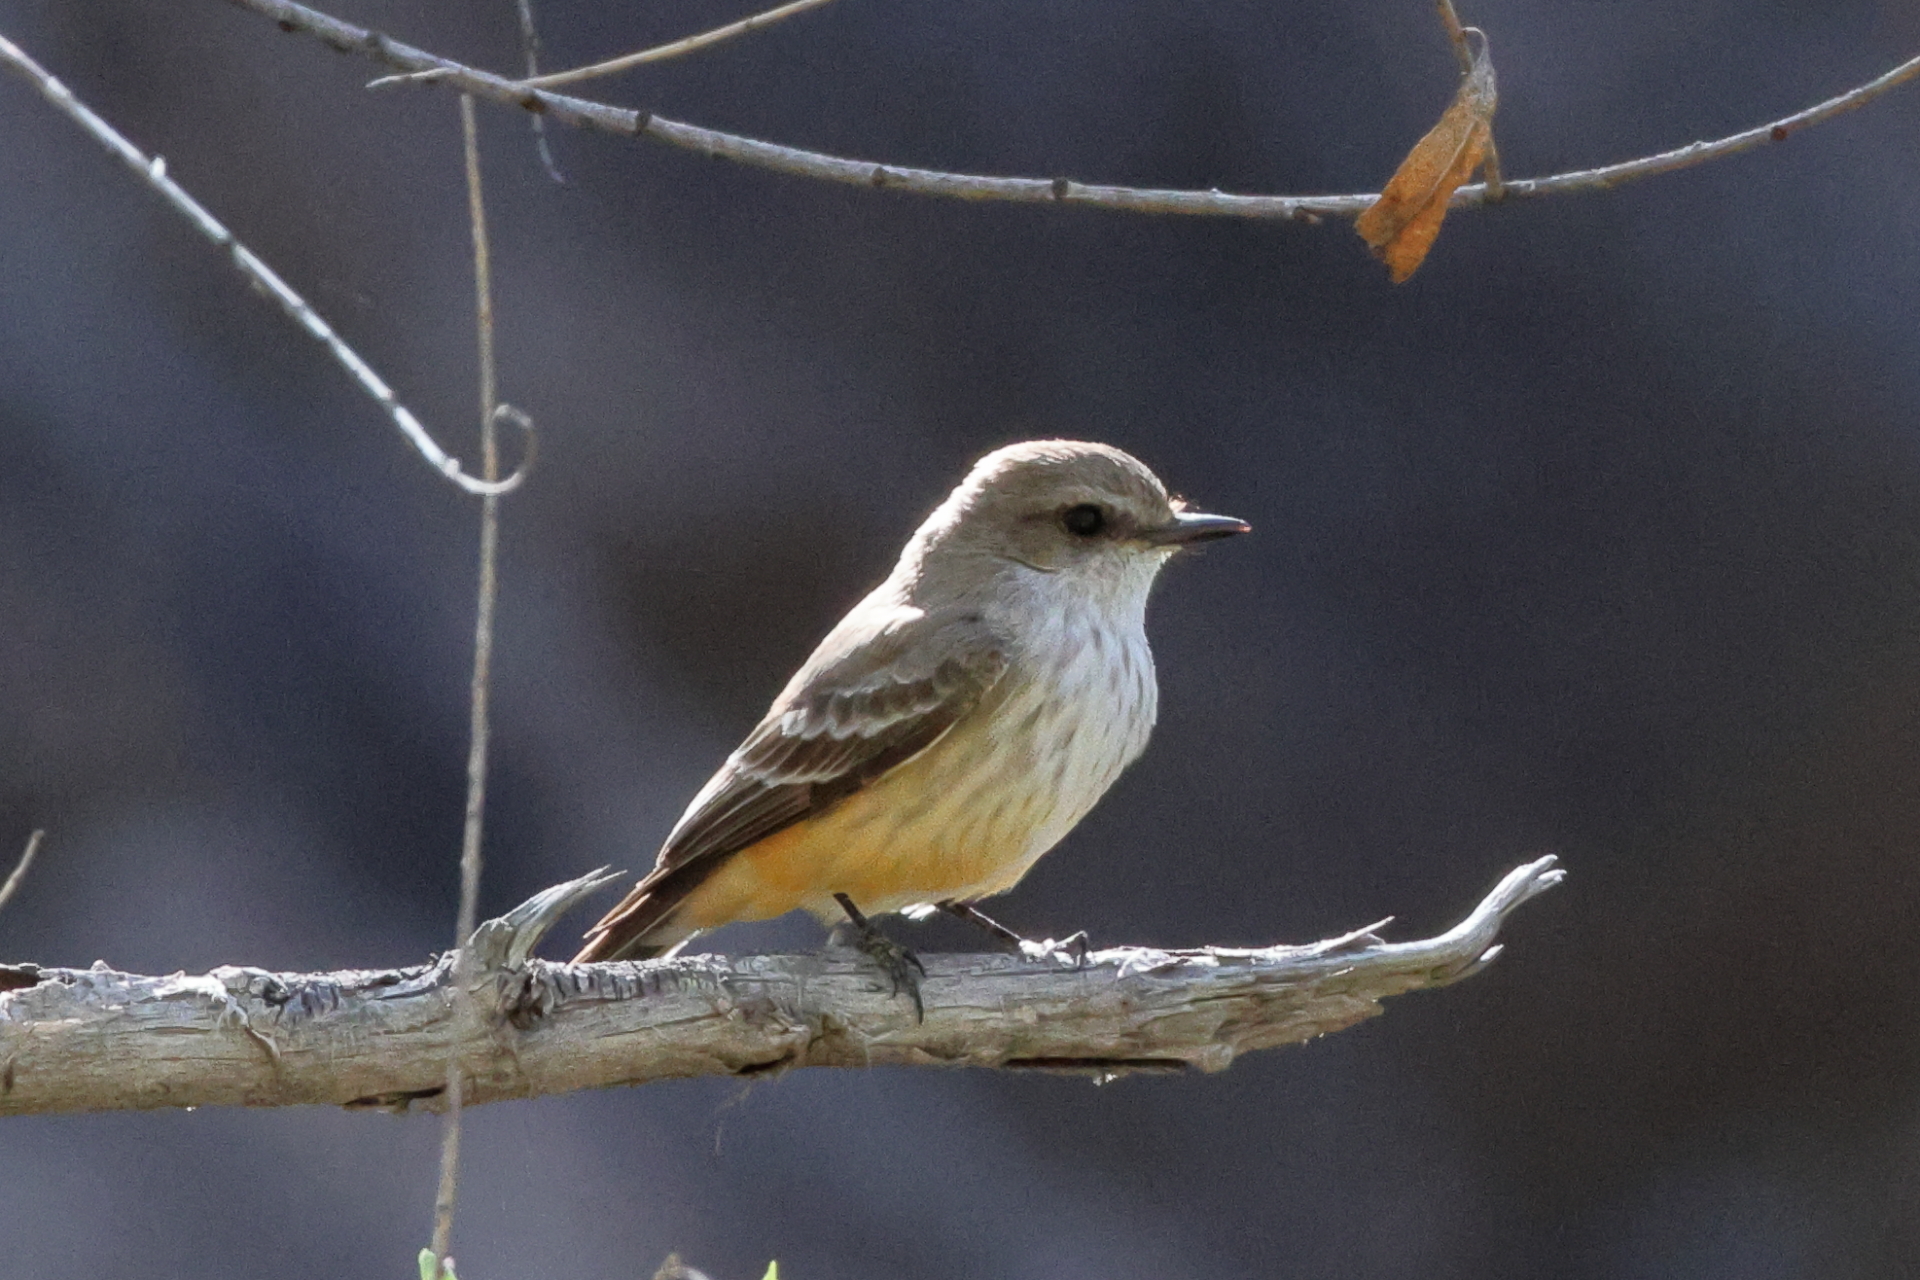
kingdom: Animalia
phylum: Chordata
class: Aves
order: Passeriformes
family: Tyrannidae
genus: Pyrocephalus
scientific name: Pyrocephalus rubinus
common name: Vermilion flycatcher
